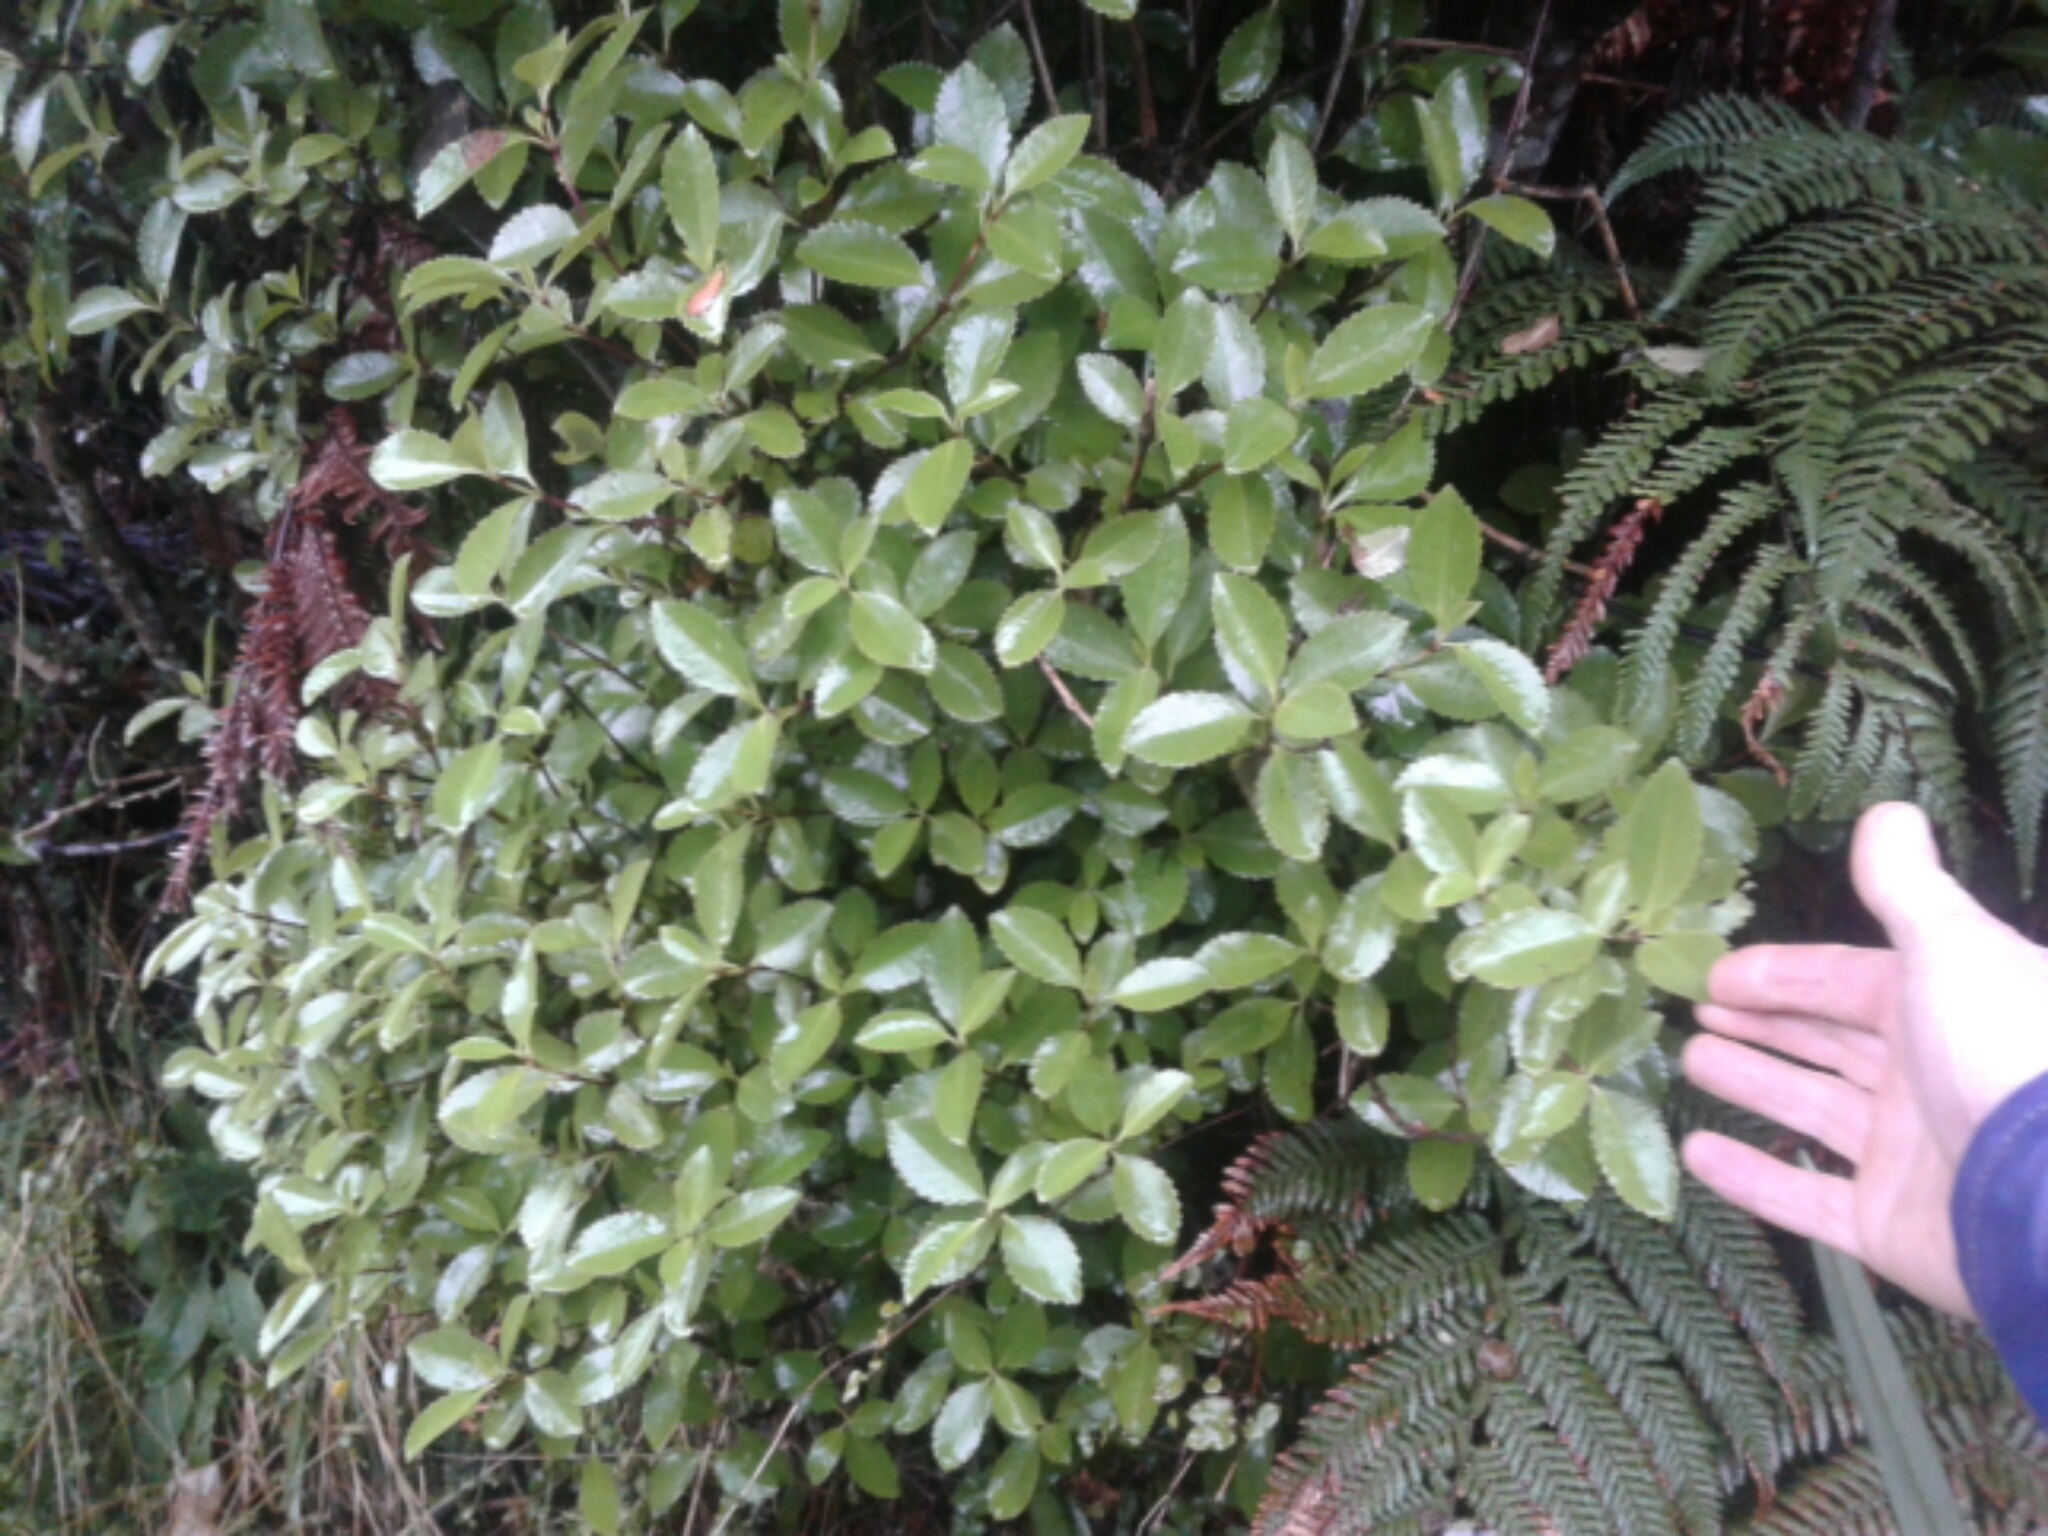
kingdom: Plantae
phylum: Tracheophyta
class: Magnoliopsida
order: Chloranthales
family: Chloranthaceae
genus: Ascarina
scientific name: Ascarina lucida
